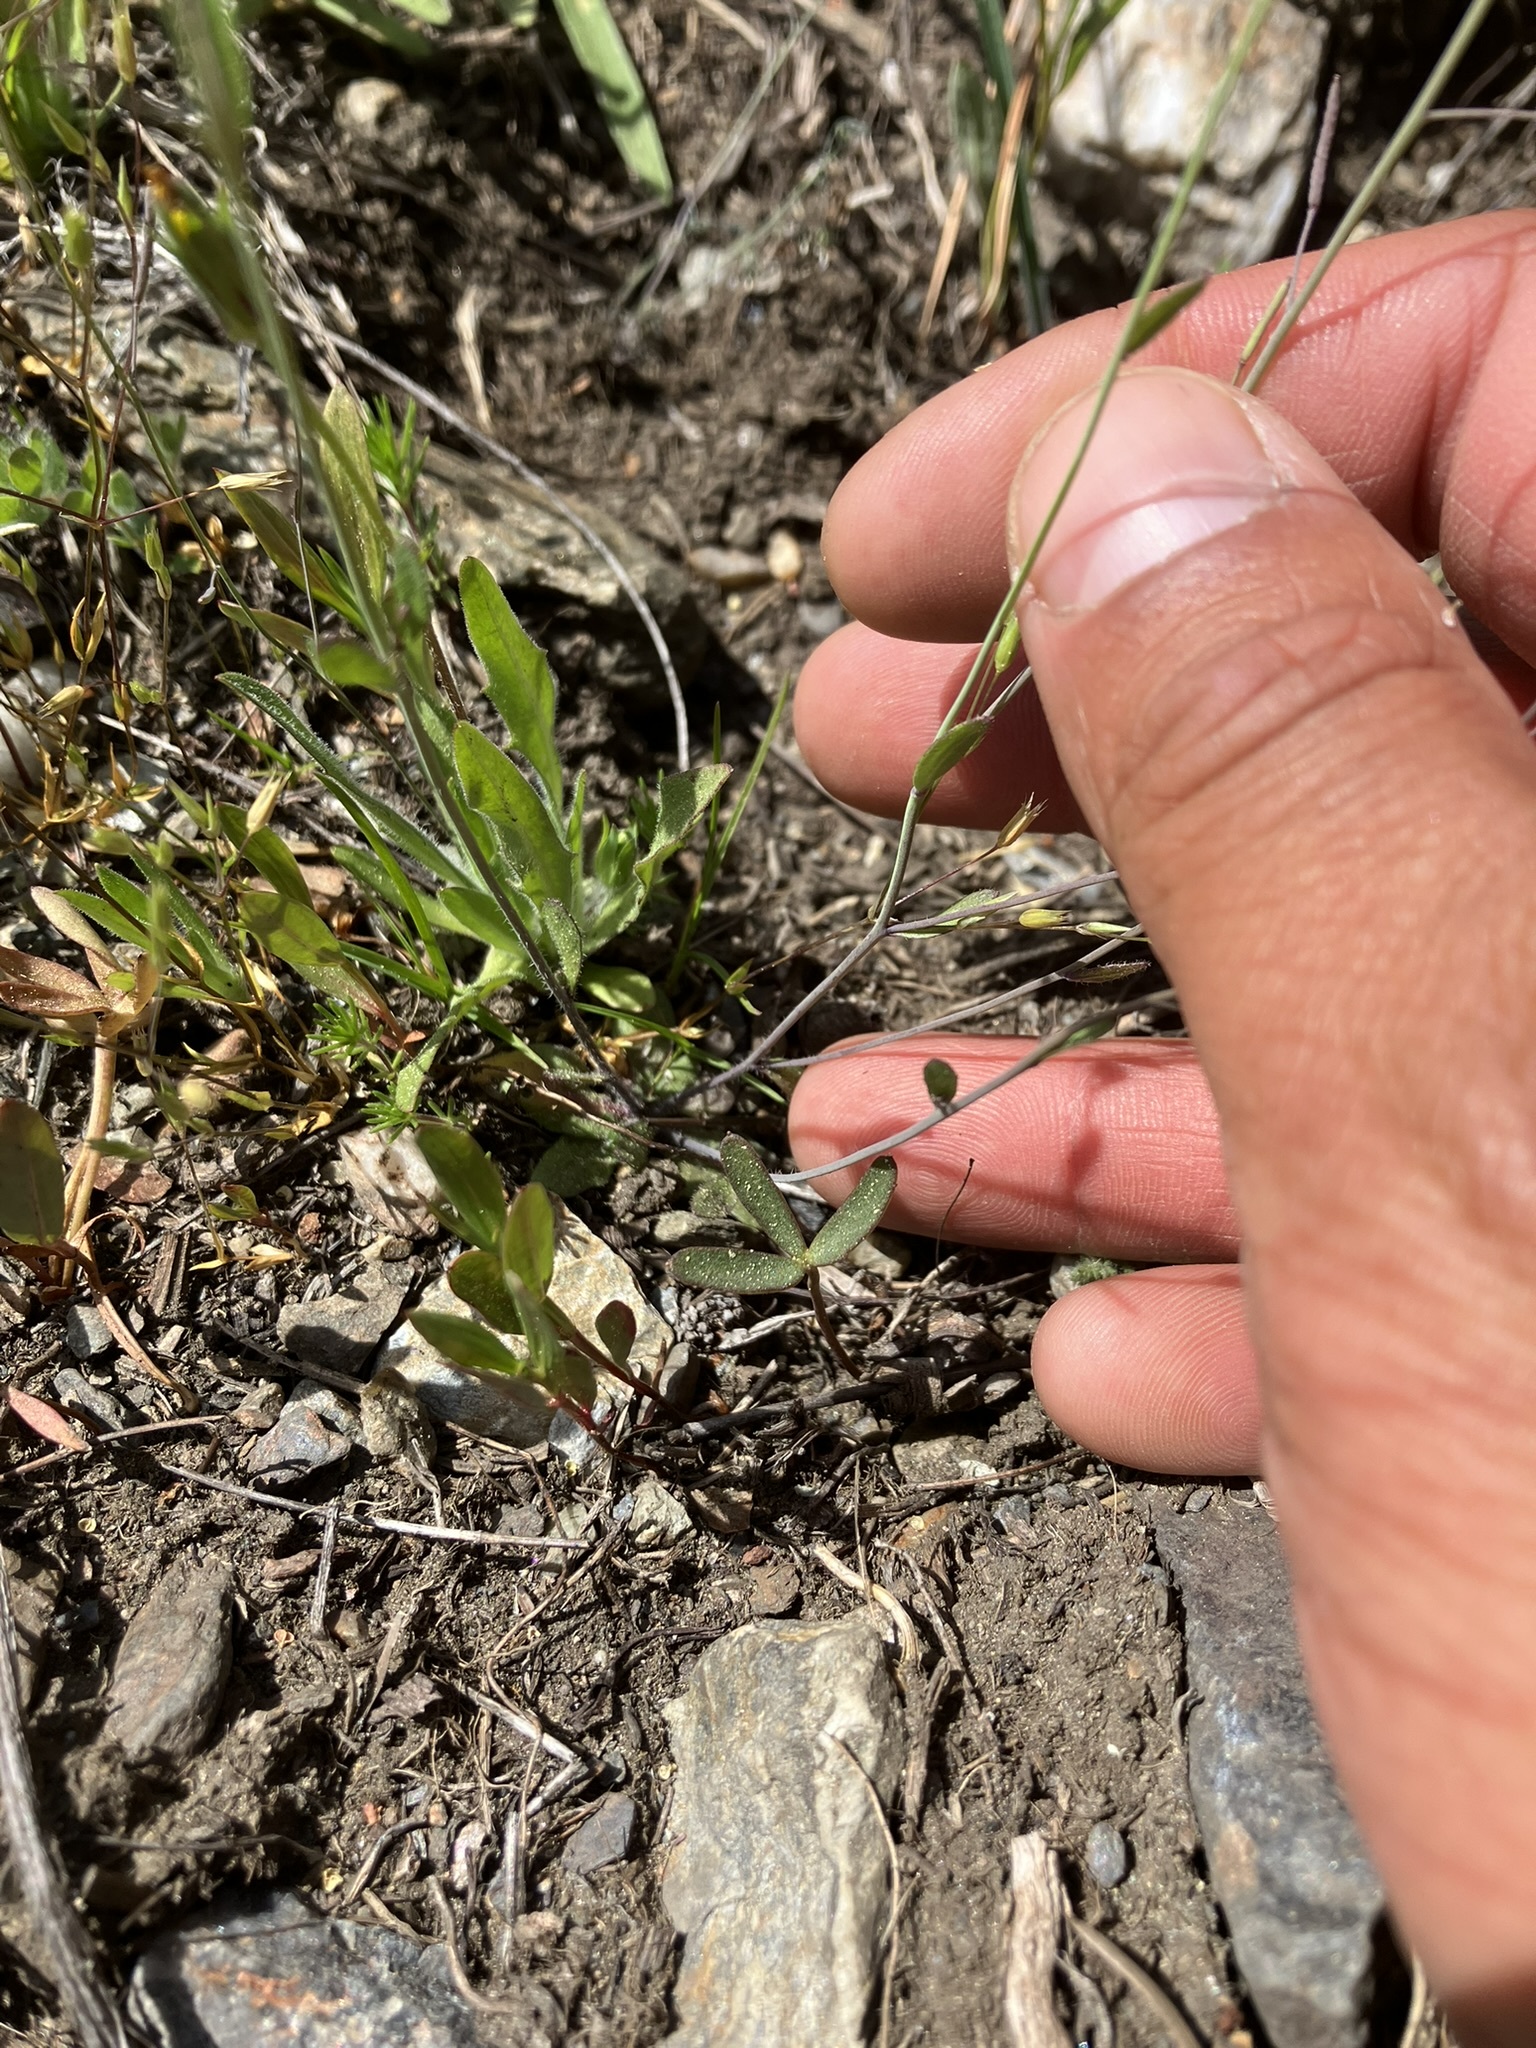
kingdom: Plantae
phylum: Tracheophyta
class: Magnoliopsida
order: Brassicales
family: Brassicaceae
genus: Arabidopsis
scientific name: Arabidopsis thaliana
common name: Thale cress
